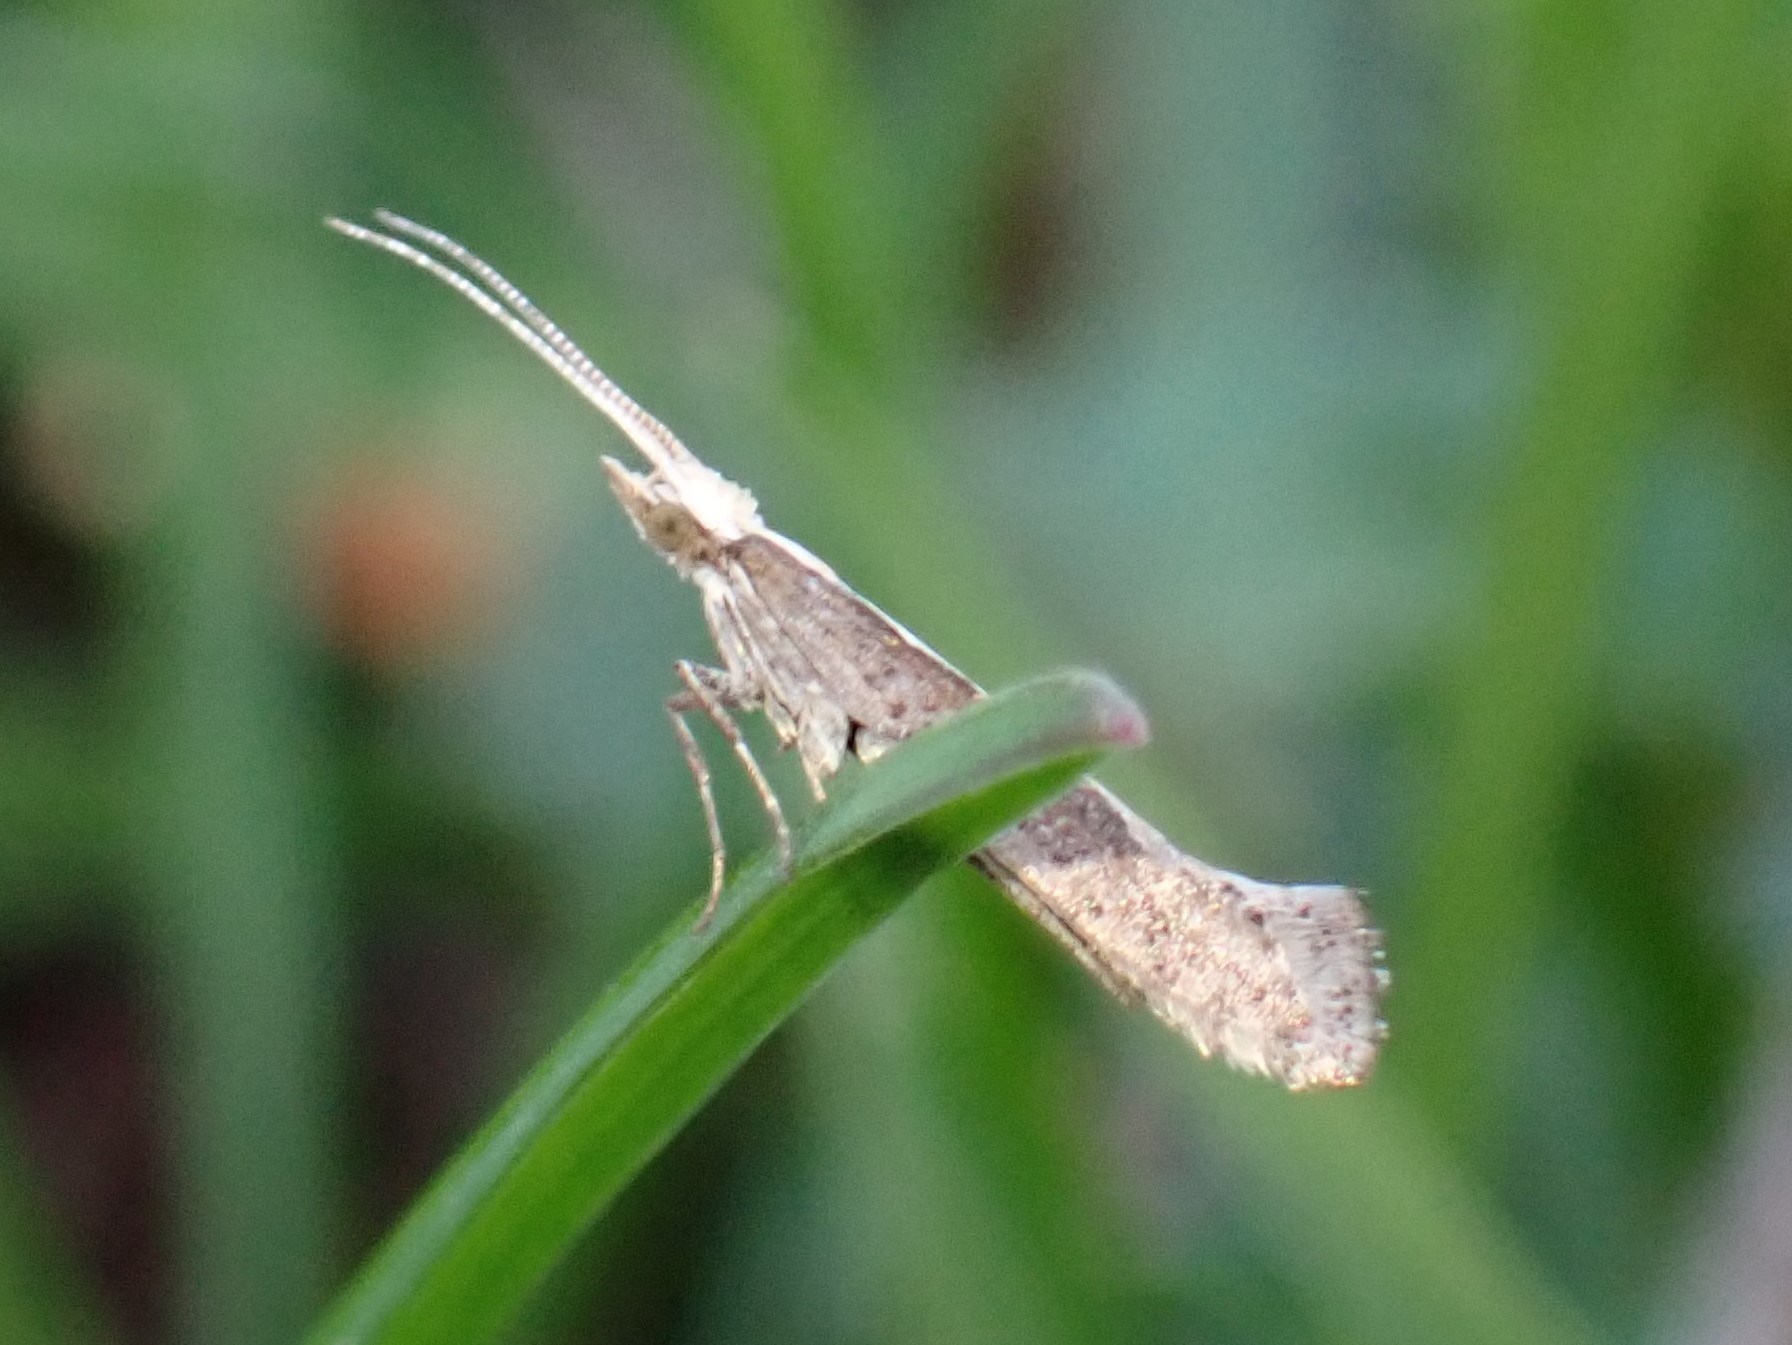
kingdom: Animalia
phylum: Arthropoda
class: Insecta
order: Lepidoptera
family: Plutellidae
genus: Plutella
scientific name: Plutella xylostella
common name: Diamond-back moth
